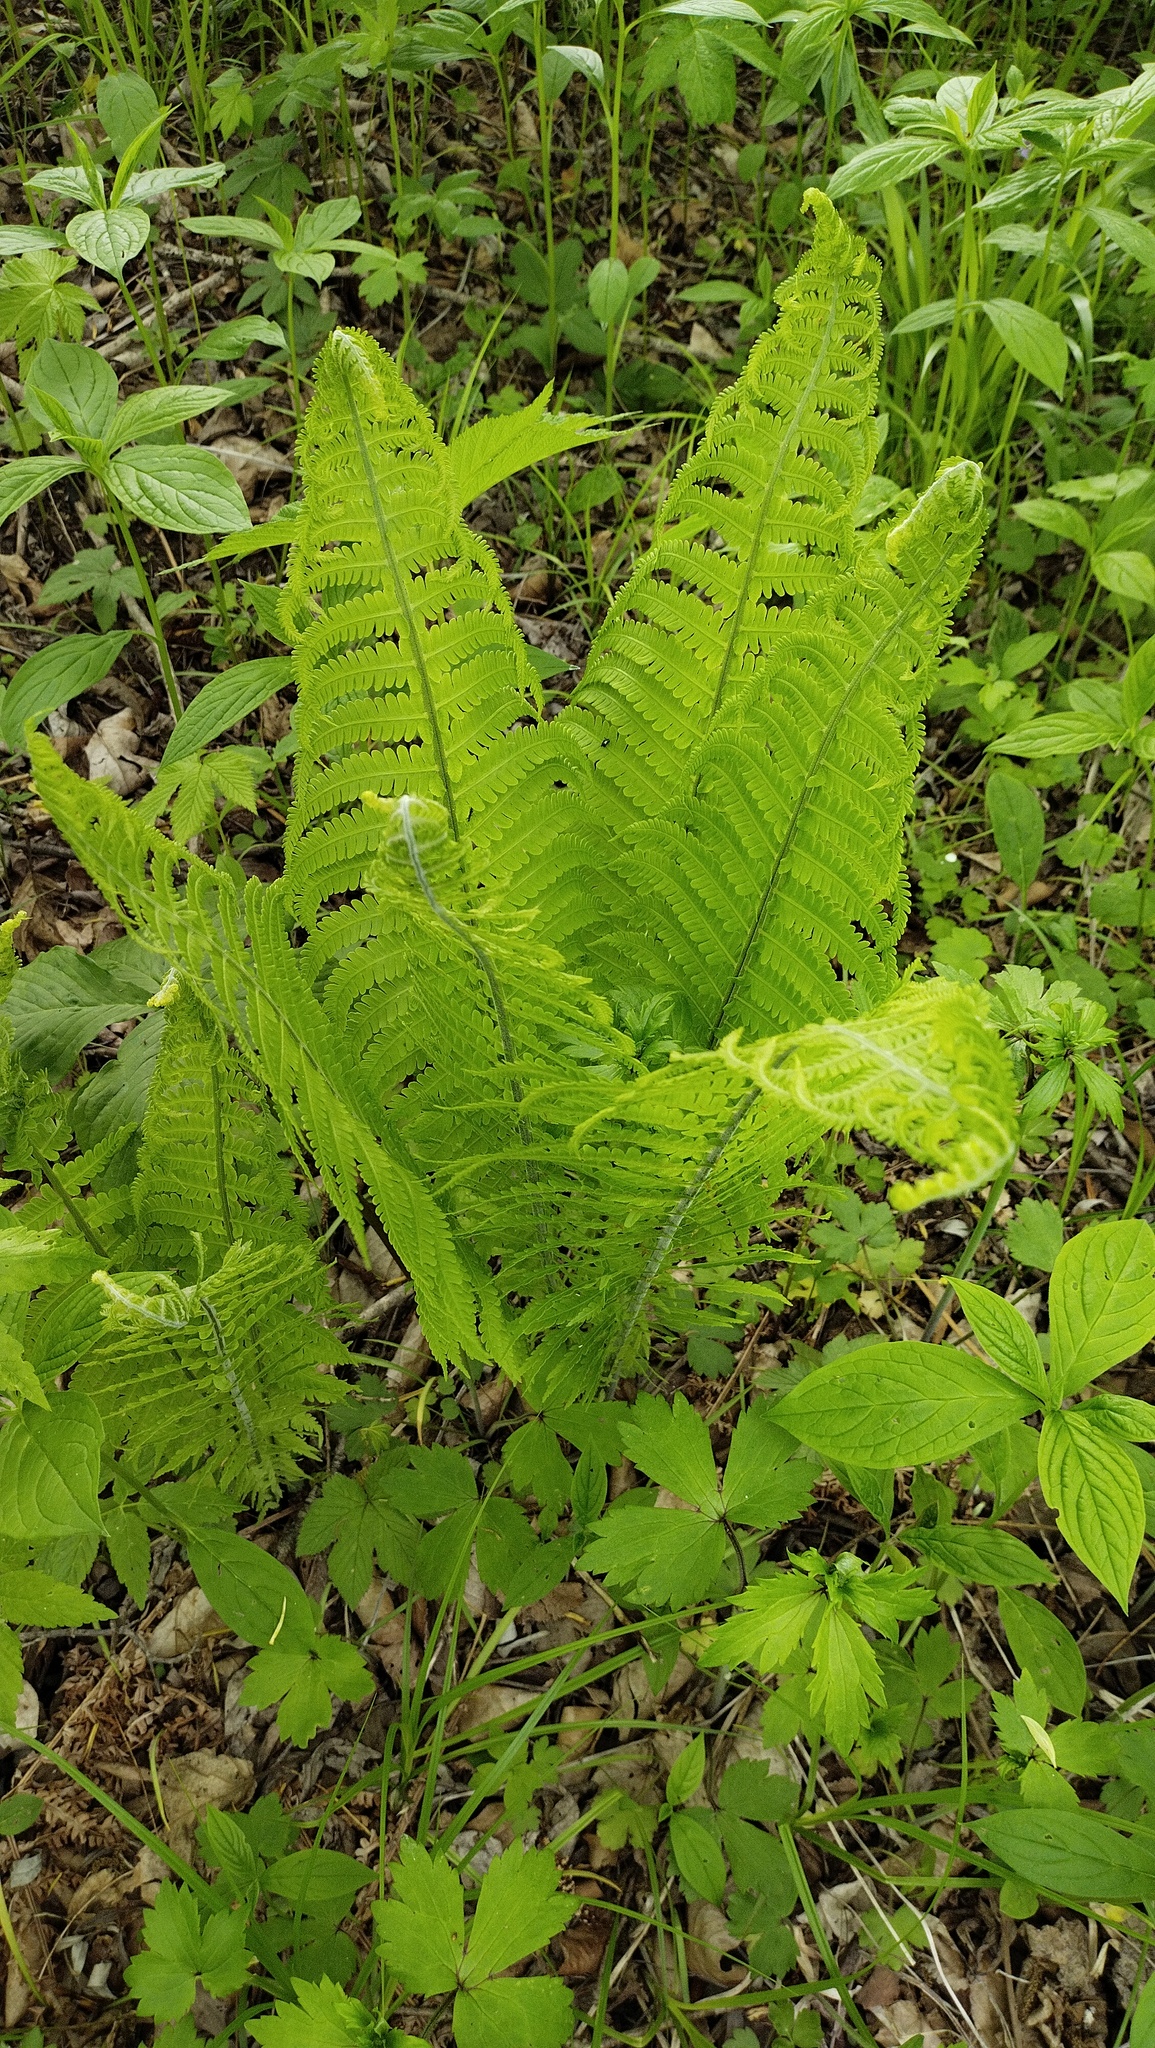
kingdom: Plantae
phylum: Tracheophyta
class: Polypodiopsida
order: Polypodiales
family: Onocleaceae
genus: Matteuccia
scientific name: Matteuccia struthiopteris
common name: Ostrich fern
